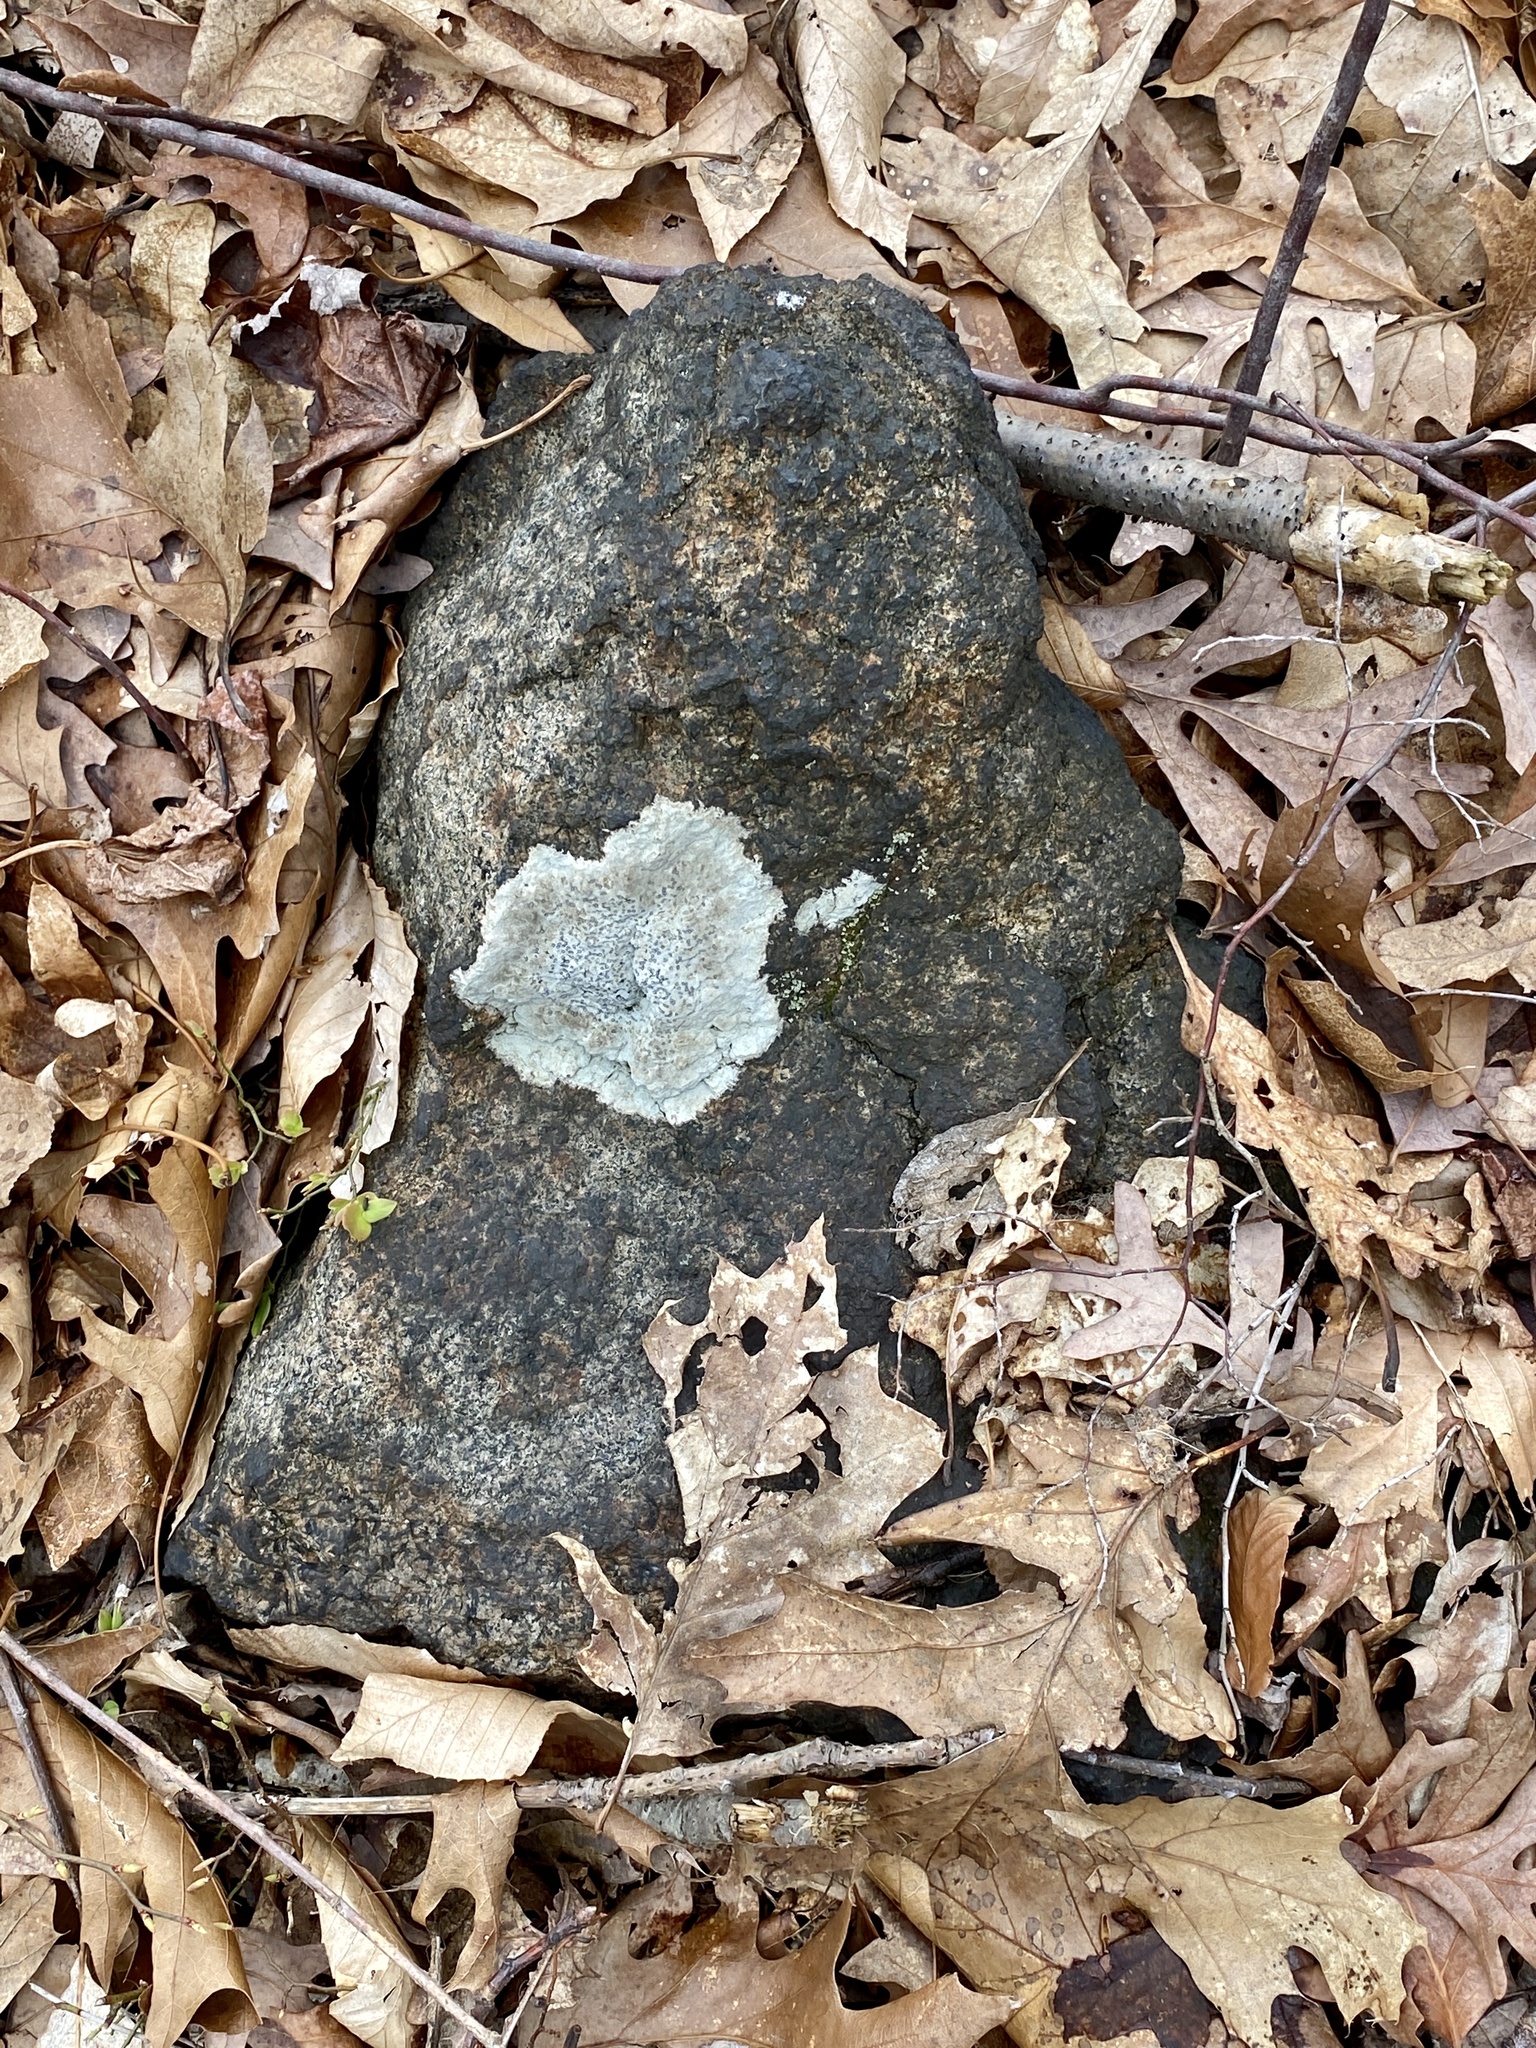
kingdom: Fungi
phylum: Ascomycota
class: Lecanoromycetes
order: Lecideales
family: Lecideaceae
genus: Porpidia
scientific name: Porpidia albocaerulescens
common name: Smokey-eyed boulder lichen
